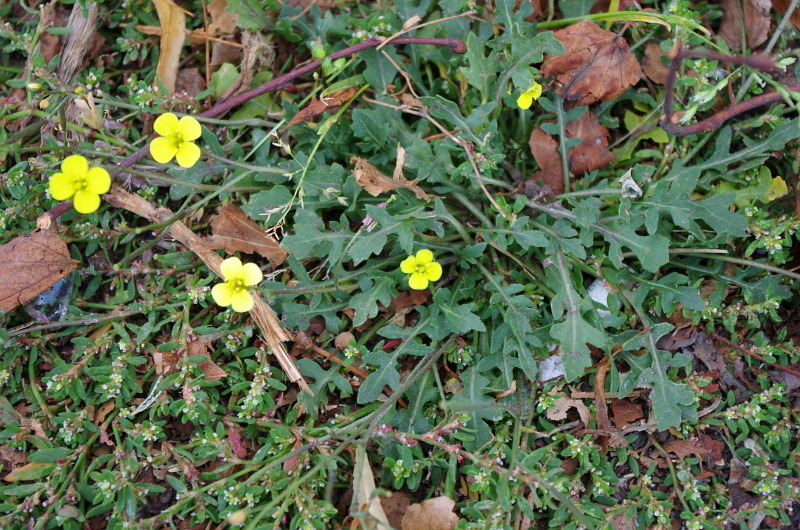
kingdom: Plantae
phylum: Tracheophyta
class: Magnoliopsida
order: Brassicales
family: Brassicaceae
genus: Diplotaxis
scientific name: Diplotaxis muralis
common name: Annual wall-rocket
